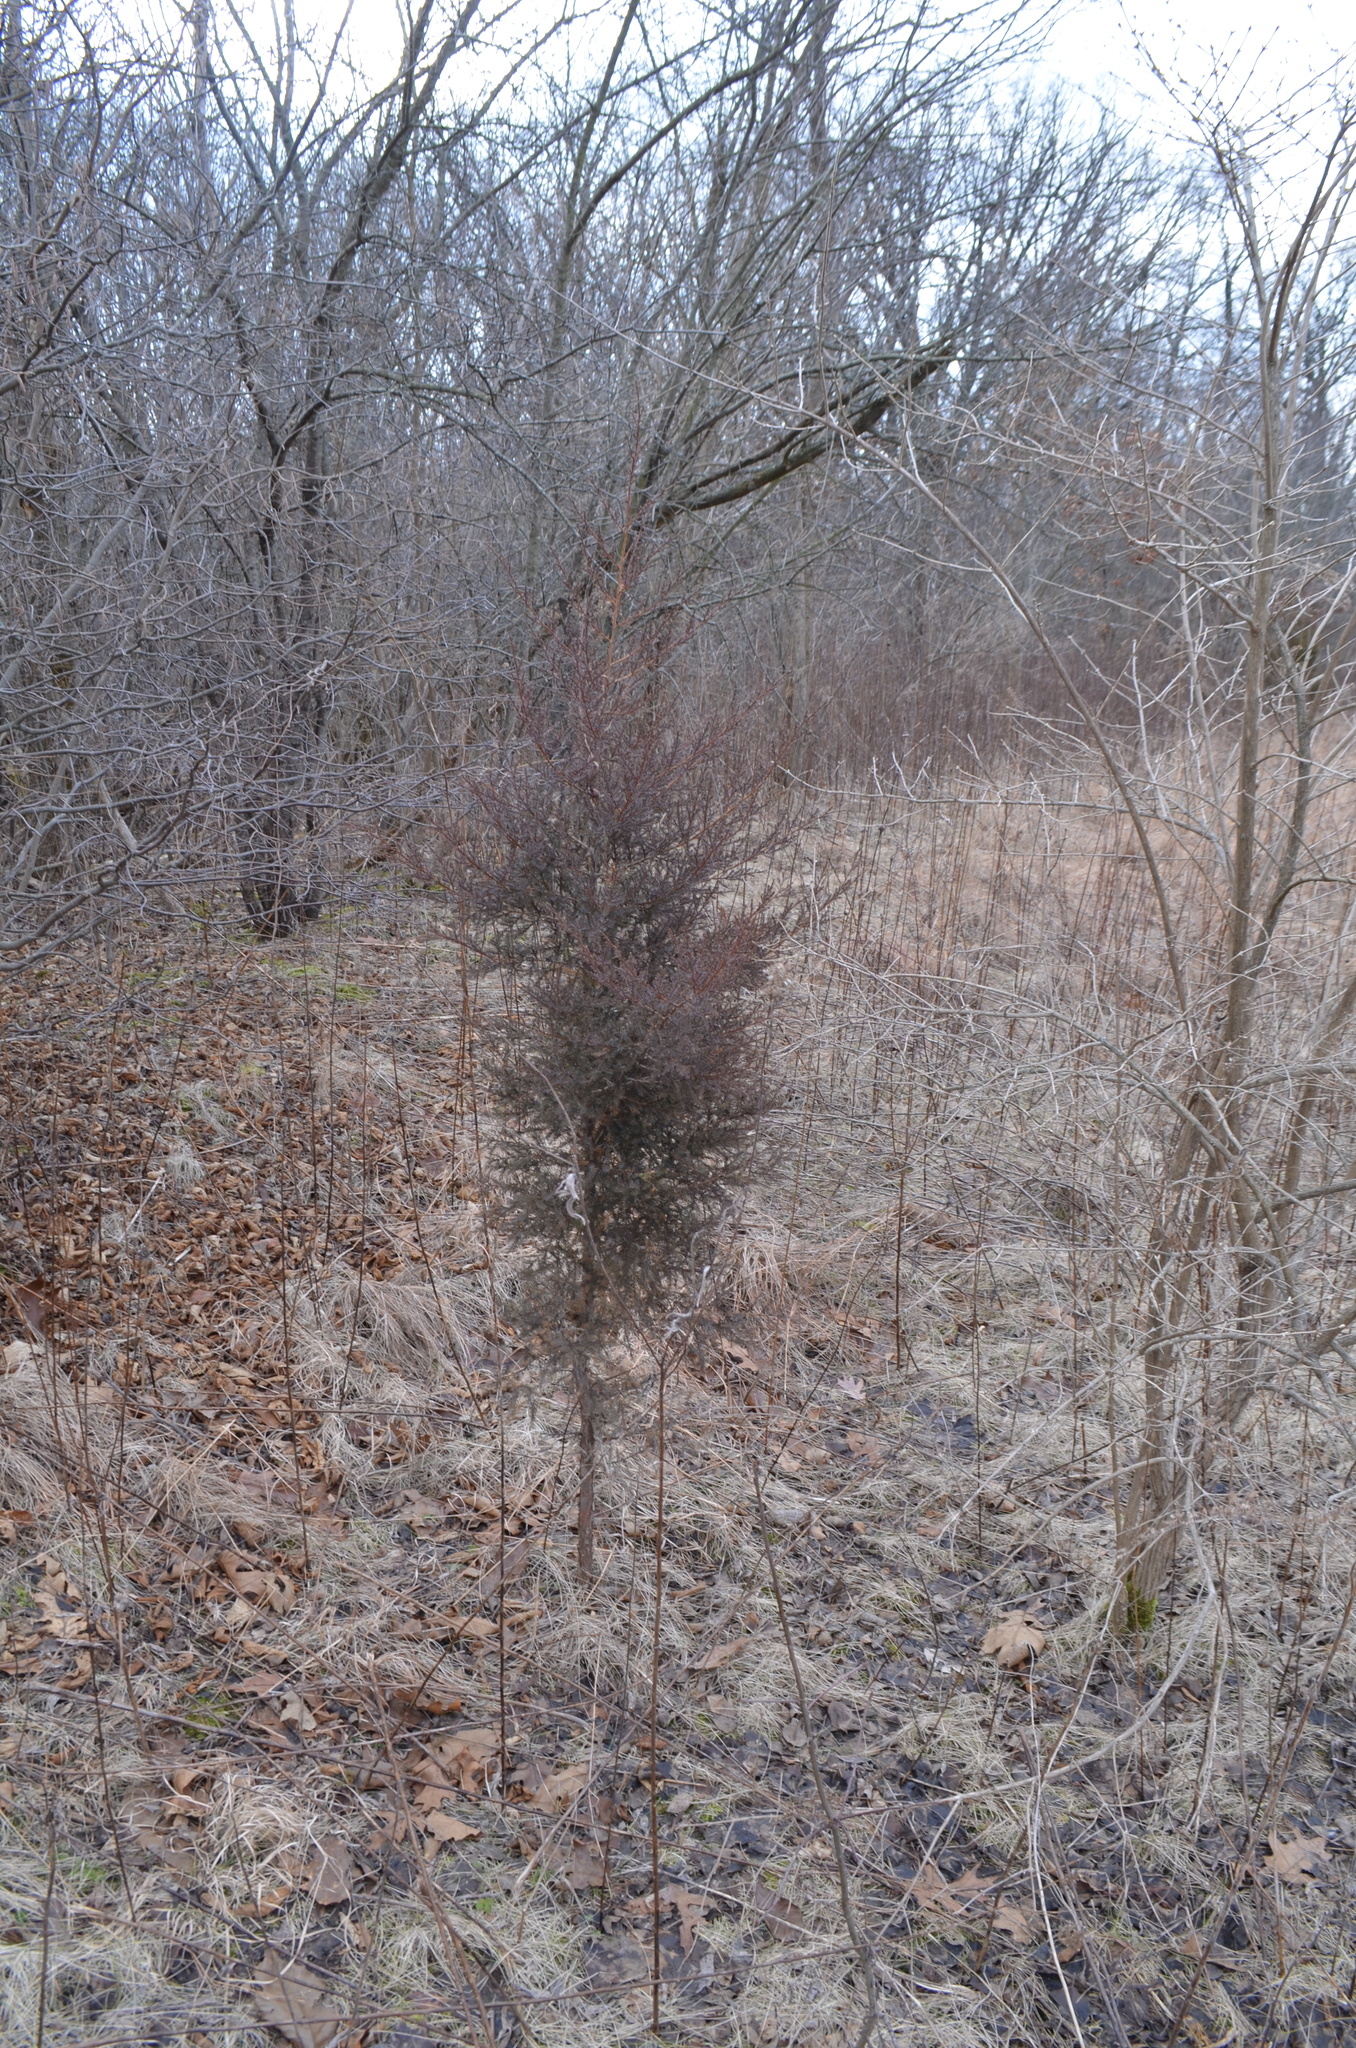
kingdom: Plantae
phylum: Tracheophyta
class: Pinopsida
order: Pinales
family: Cupressaceae
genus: Juniperus
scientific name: Juniperus virginiana
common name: Red juniper
